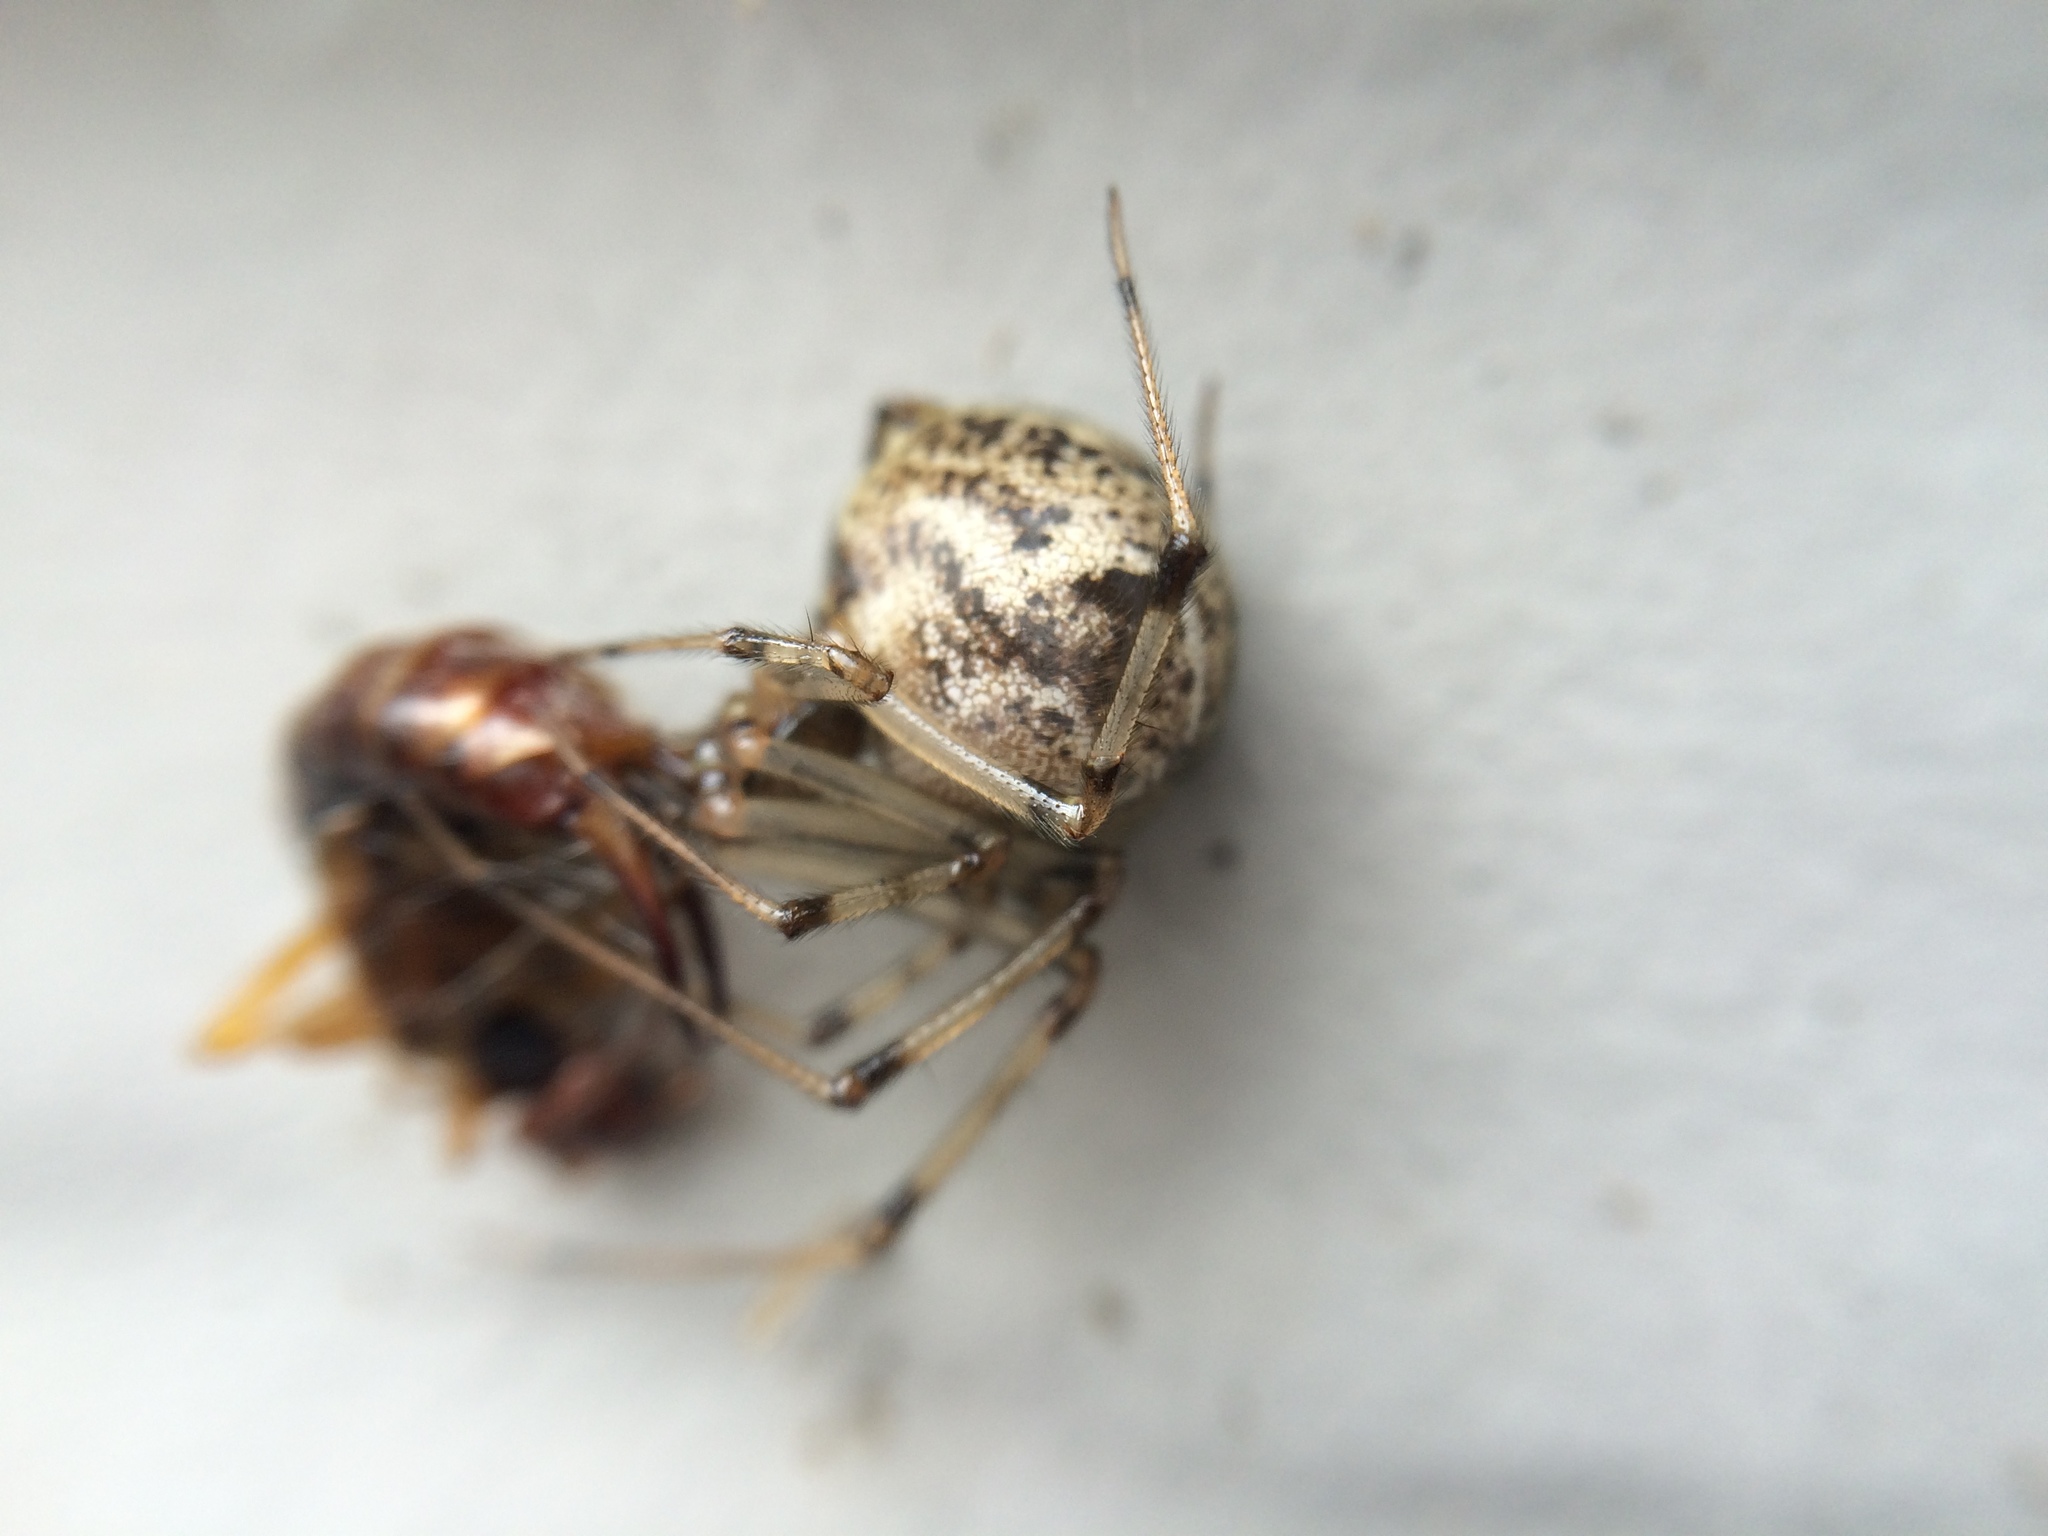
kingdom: Animalia
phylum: Arthropoda
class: Arachnida
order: Araneae
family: Theridiidae
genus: Parasteatoda
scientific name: Parasteatoda tepidariorum
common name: Common house spider
